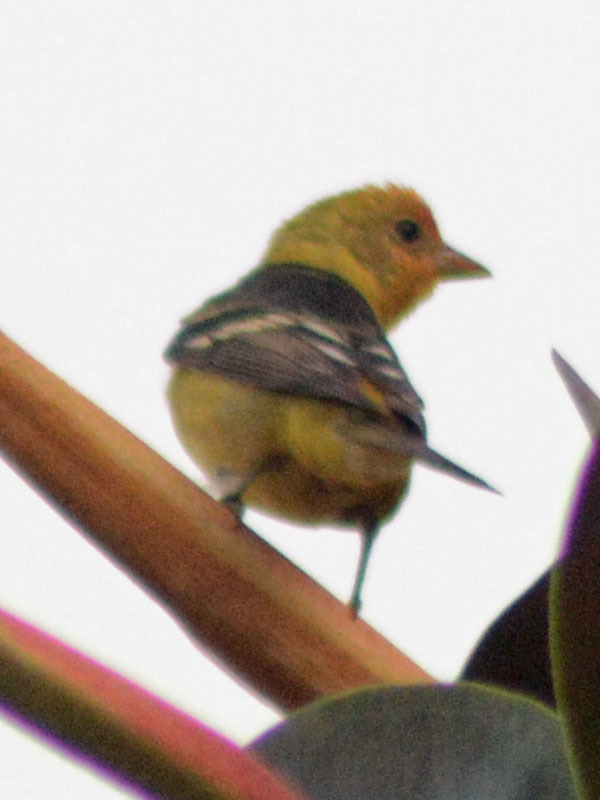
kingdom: Animalia
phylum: Chordata
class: Aves
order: Passeriformes
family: Cardinalidae
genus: Piranga
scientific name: Piranga ludoviciana
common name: Western tanager
